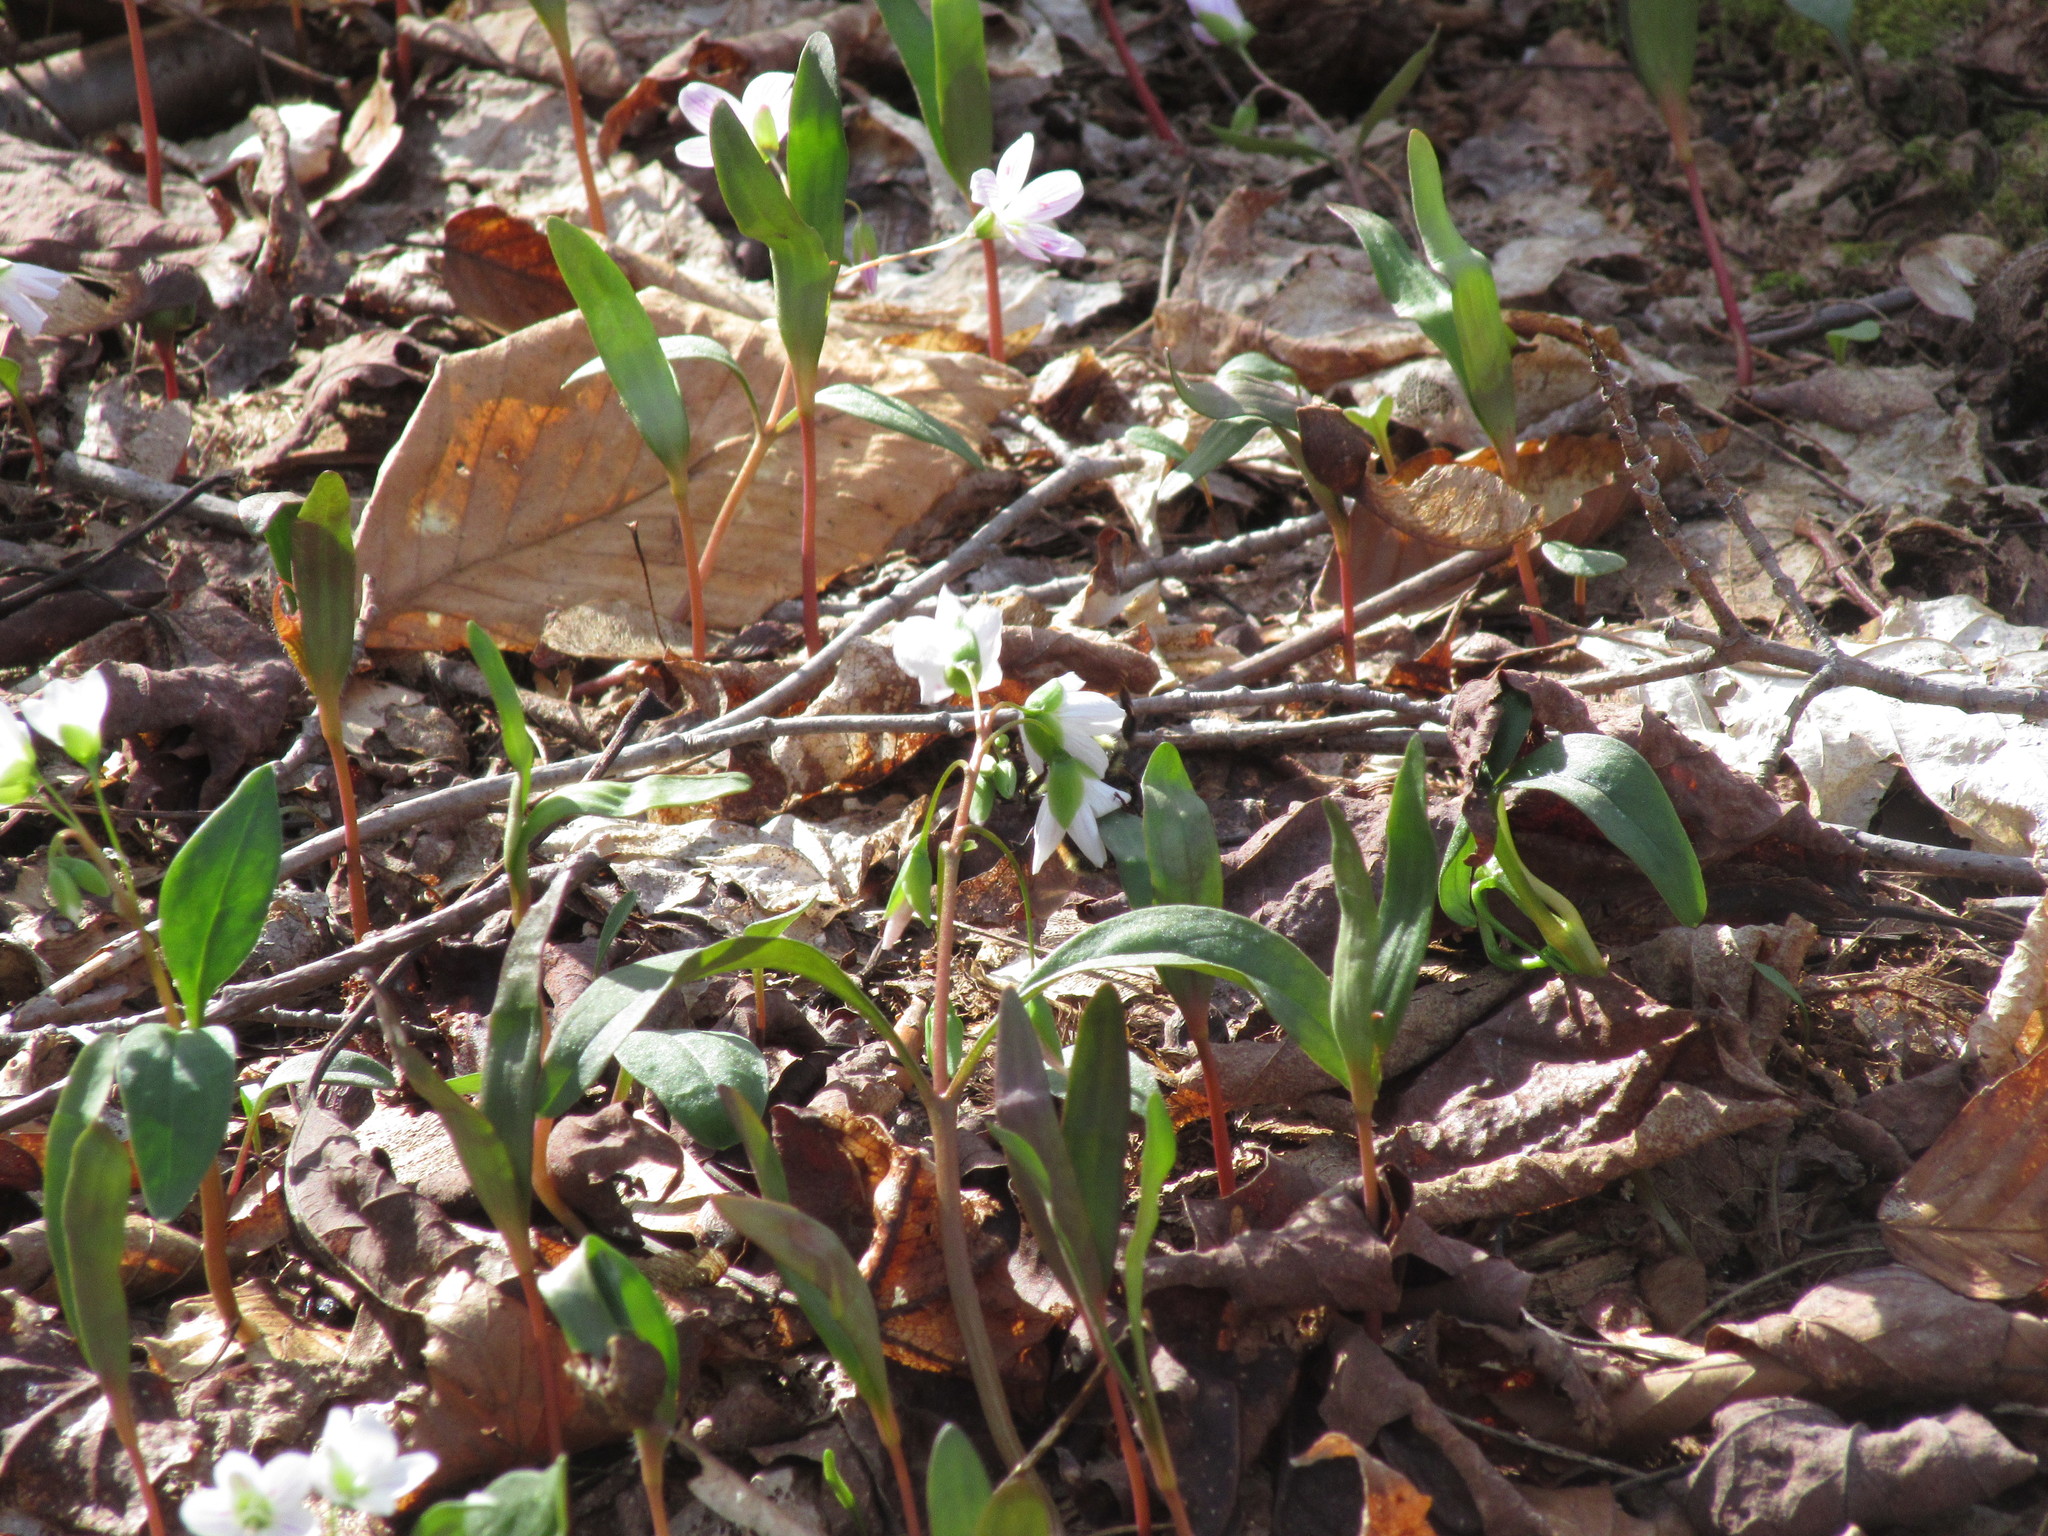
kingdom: Plantae
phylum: Tracheophyta
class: Magnoliopsida
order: Caryophyllales
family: Montiaceae
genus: Claytonia
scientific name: Claytonia caroliniana
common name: Carolina spring beauty
